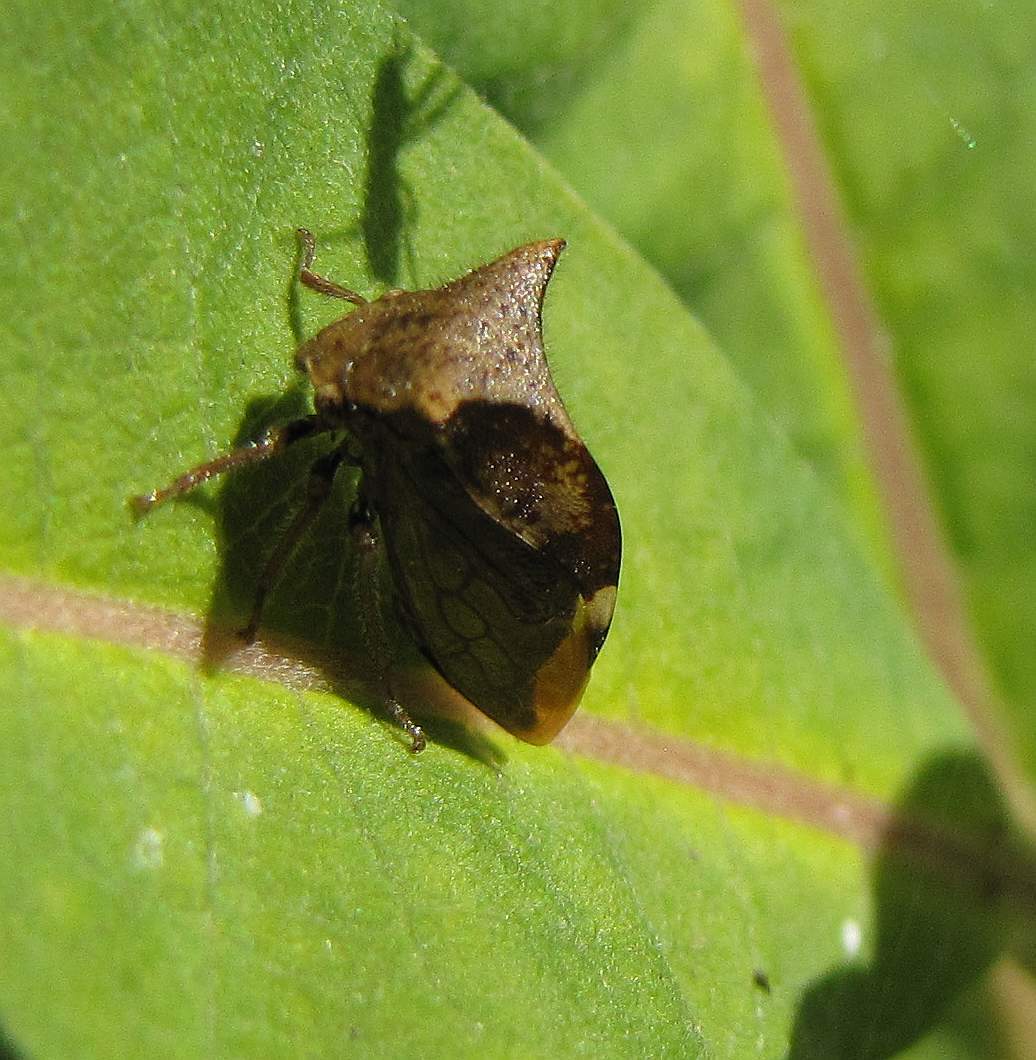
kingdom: Animalia
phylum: Arthropoda
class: Insecta
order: Hemiptera
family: Membracidae
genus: Stictocephala
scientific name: Stictocephala diceros
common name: Two-horned treehopper
